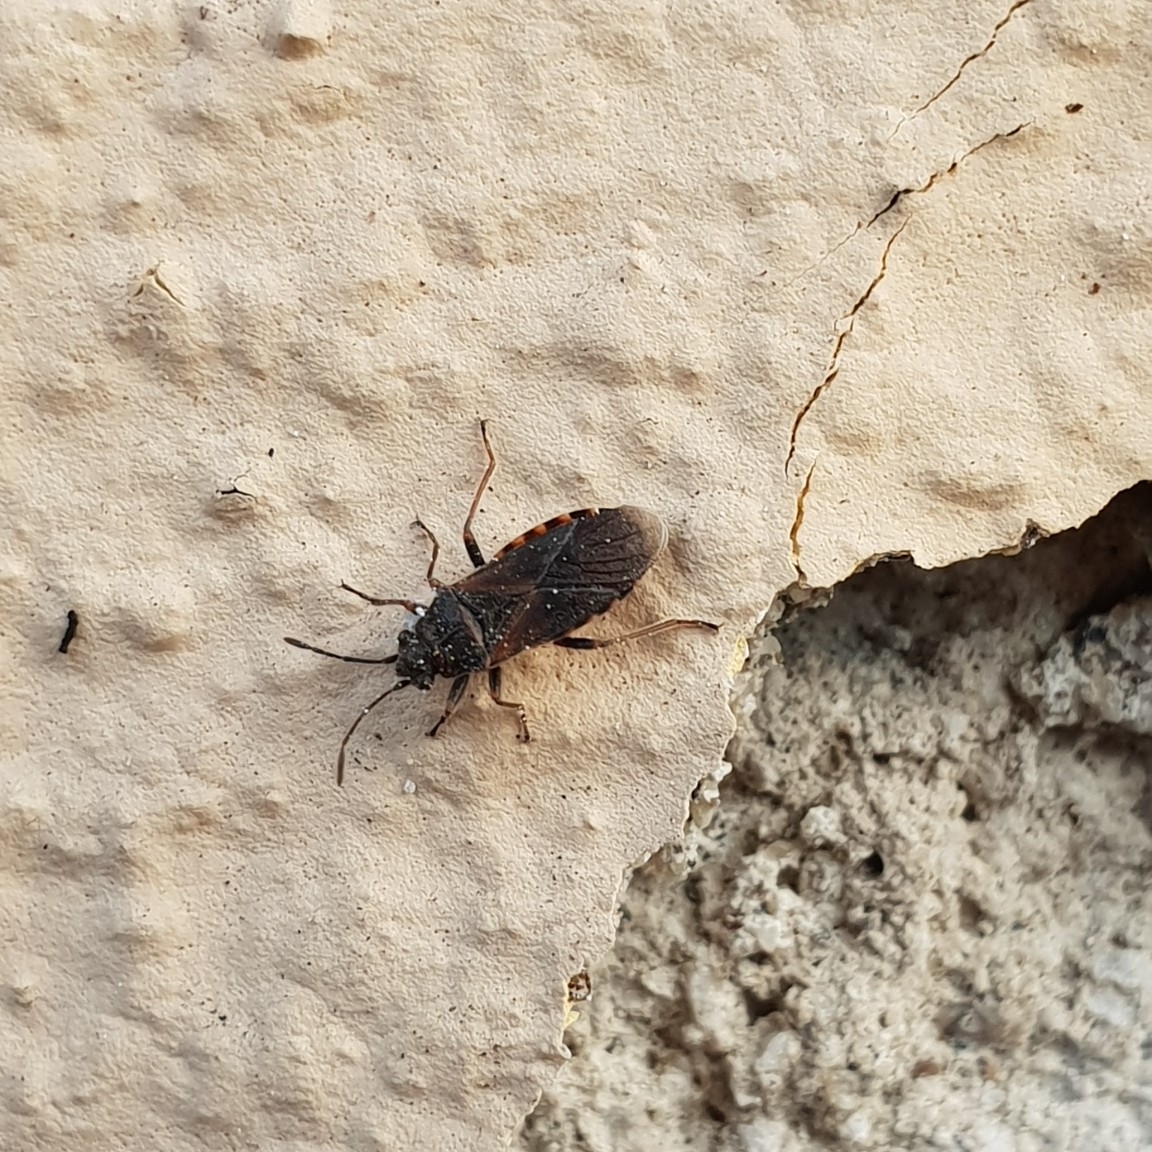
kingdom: Animalia
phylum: Arthropoda
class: Insecta
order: Hemiptera
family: Lygaeidae
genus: Arocatus
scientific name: Arocatus melanocephalus
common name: Lygaeid bug
